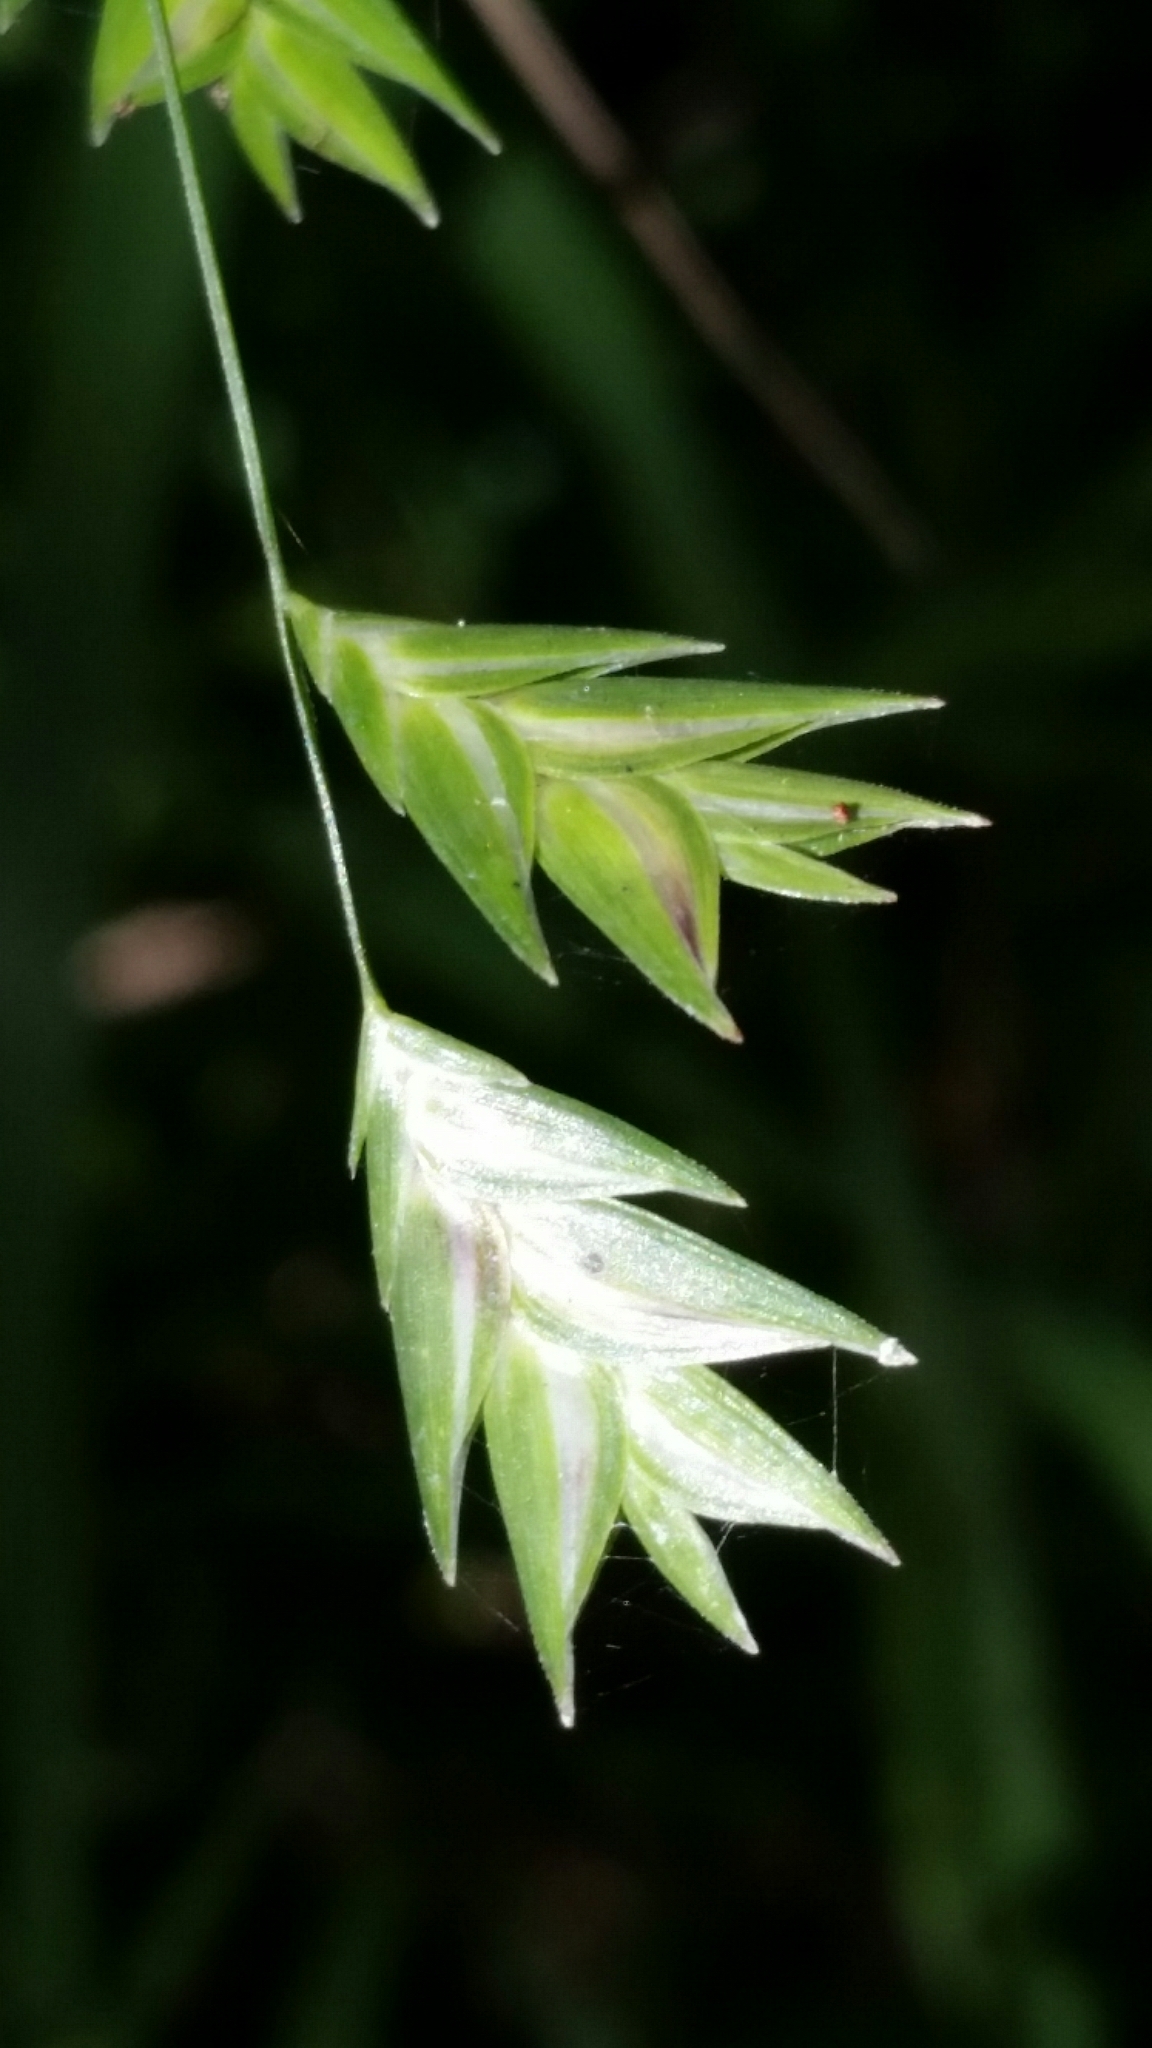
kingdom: Plantae
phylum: Tracheophyta
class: Liliopsida
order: Poales
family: Poaceae
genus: Chasmanthium
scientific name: Chasmanthium nitidum
